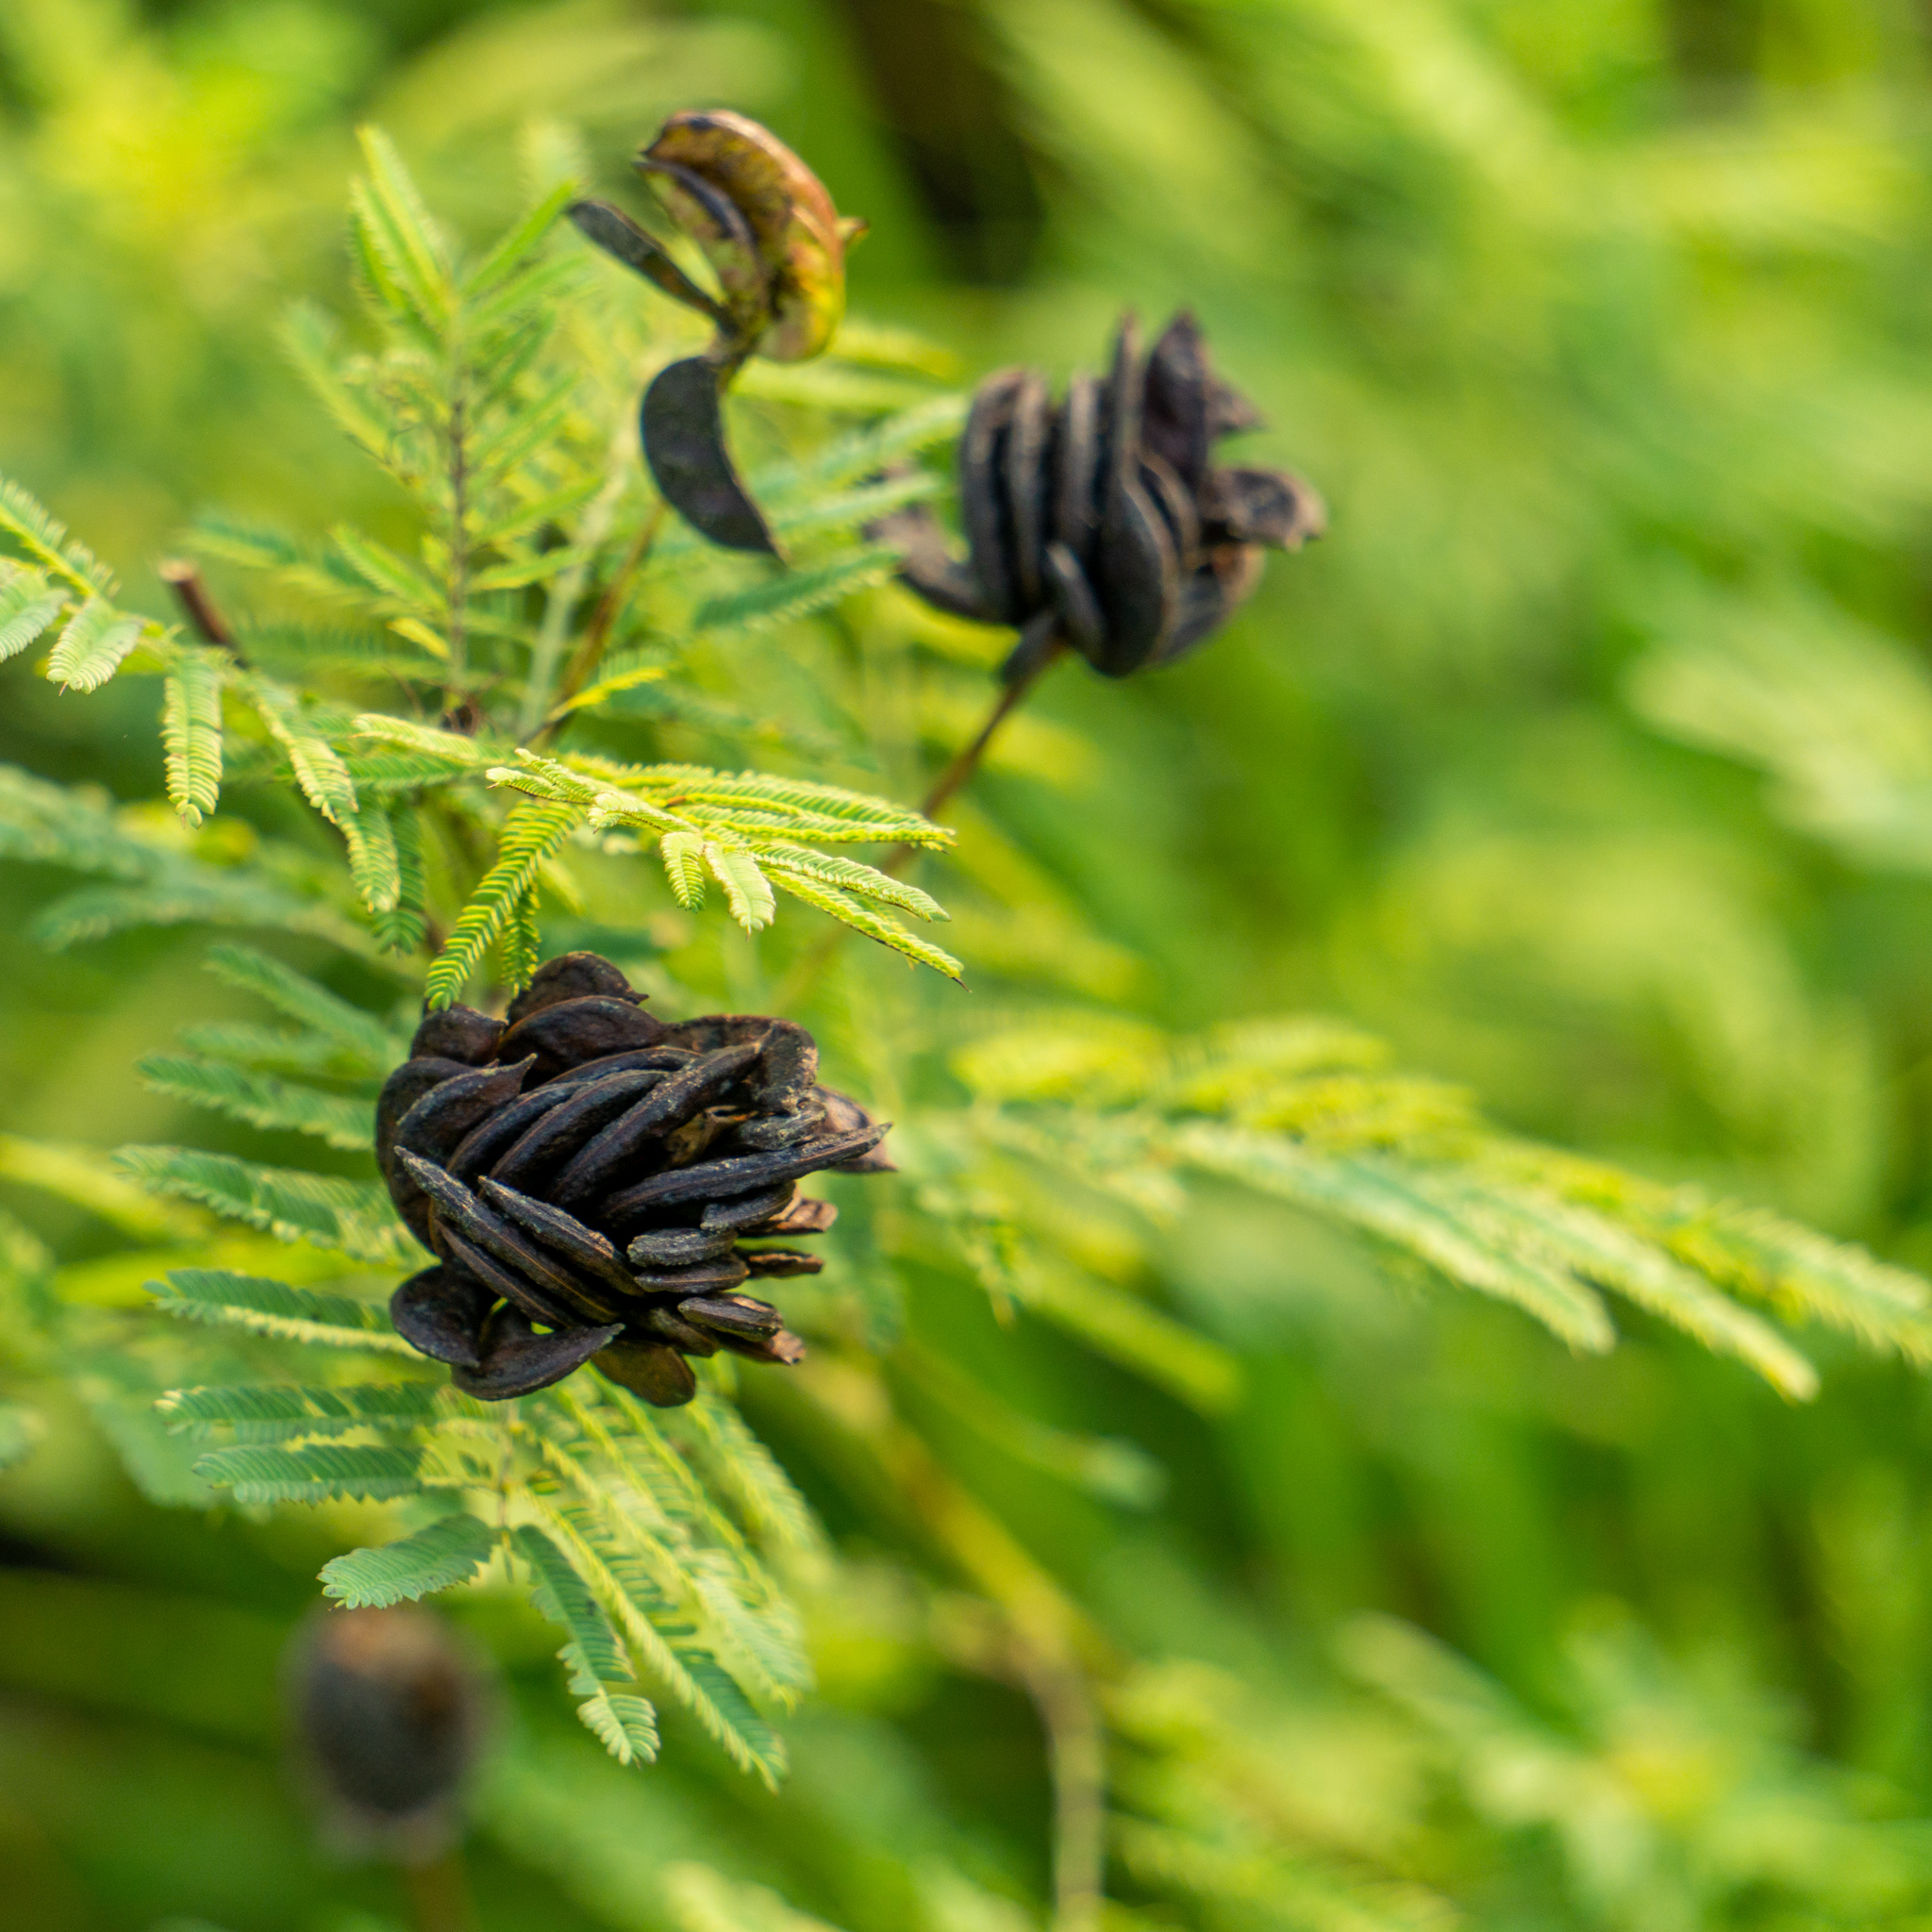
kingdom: Plantae
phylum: Tracheophyta
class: Magnoliopsida
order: Fabales
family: Fabaceae
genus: Desmanthus
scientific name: Desmanthus illinoensis
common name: Illinois bundle-flower
